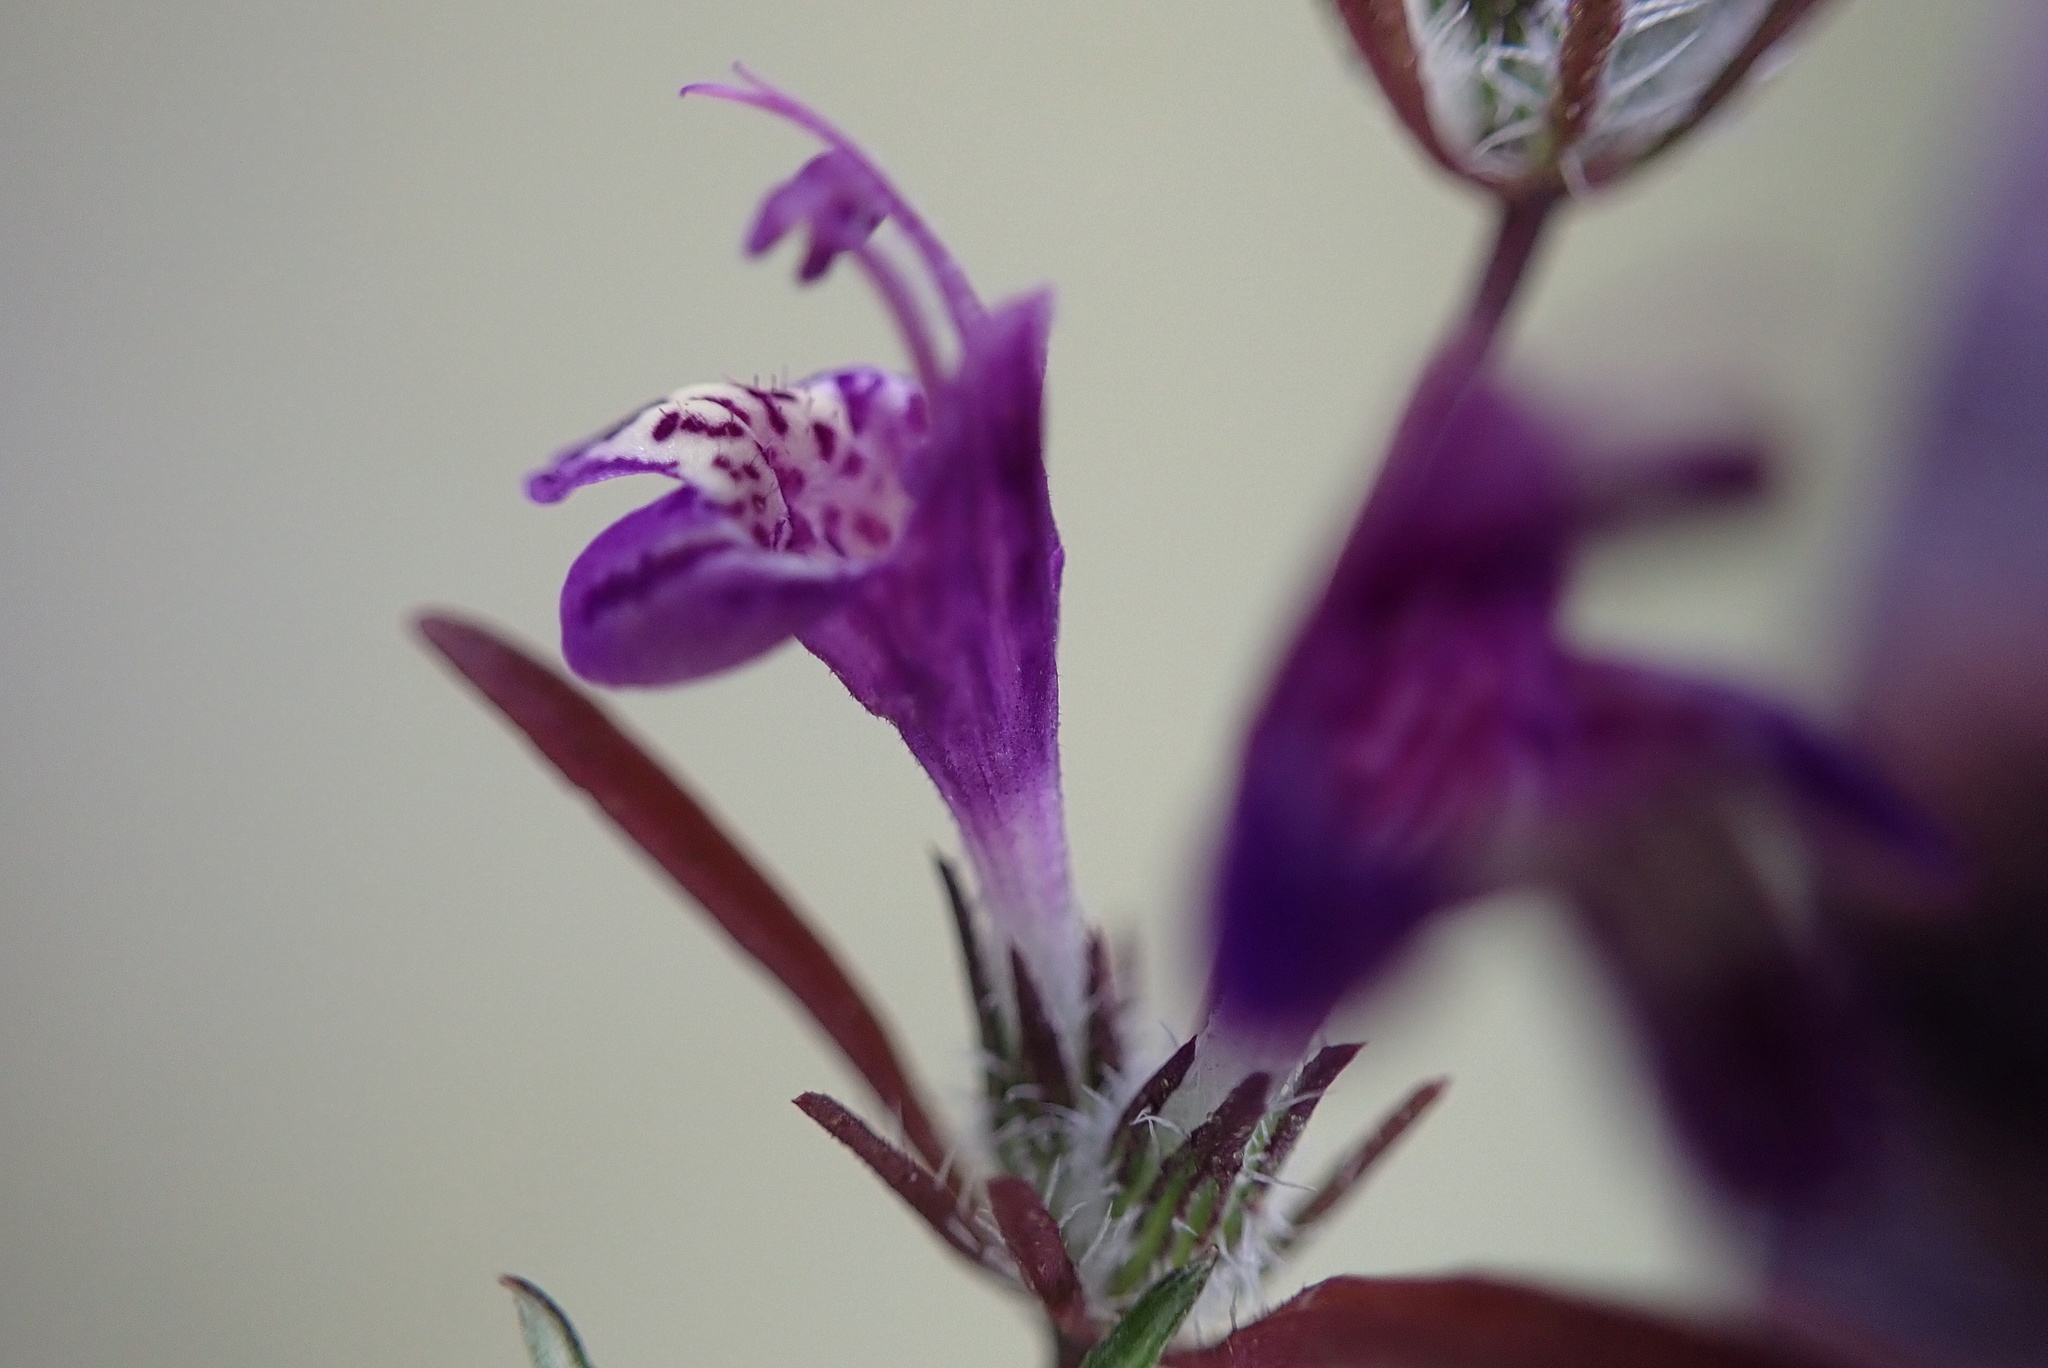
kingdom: Plantae
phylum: Tracheophyta
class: Magnoliopsida
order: Lamiales
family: Lamiaceae
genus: Pogogyne
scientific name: Pogogyne abramsii
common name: San diego mesa-mint
